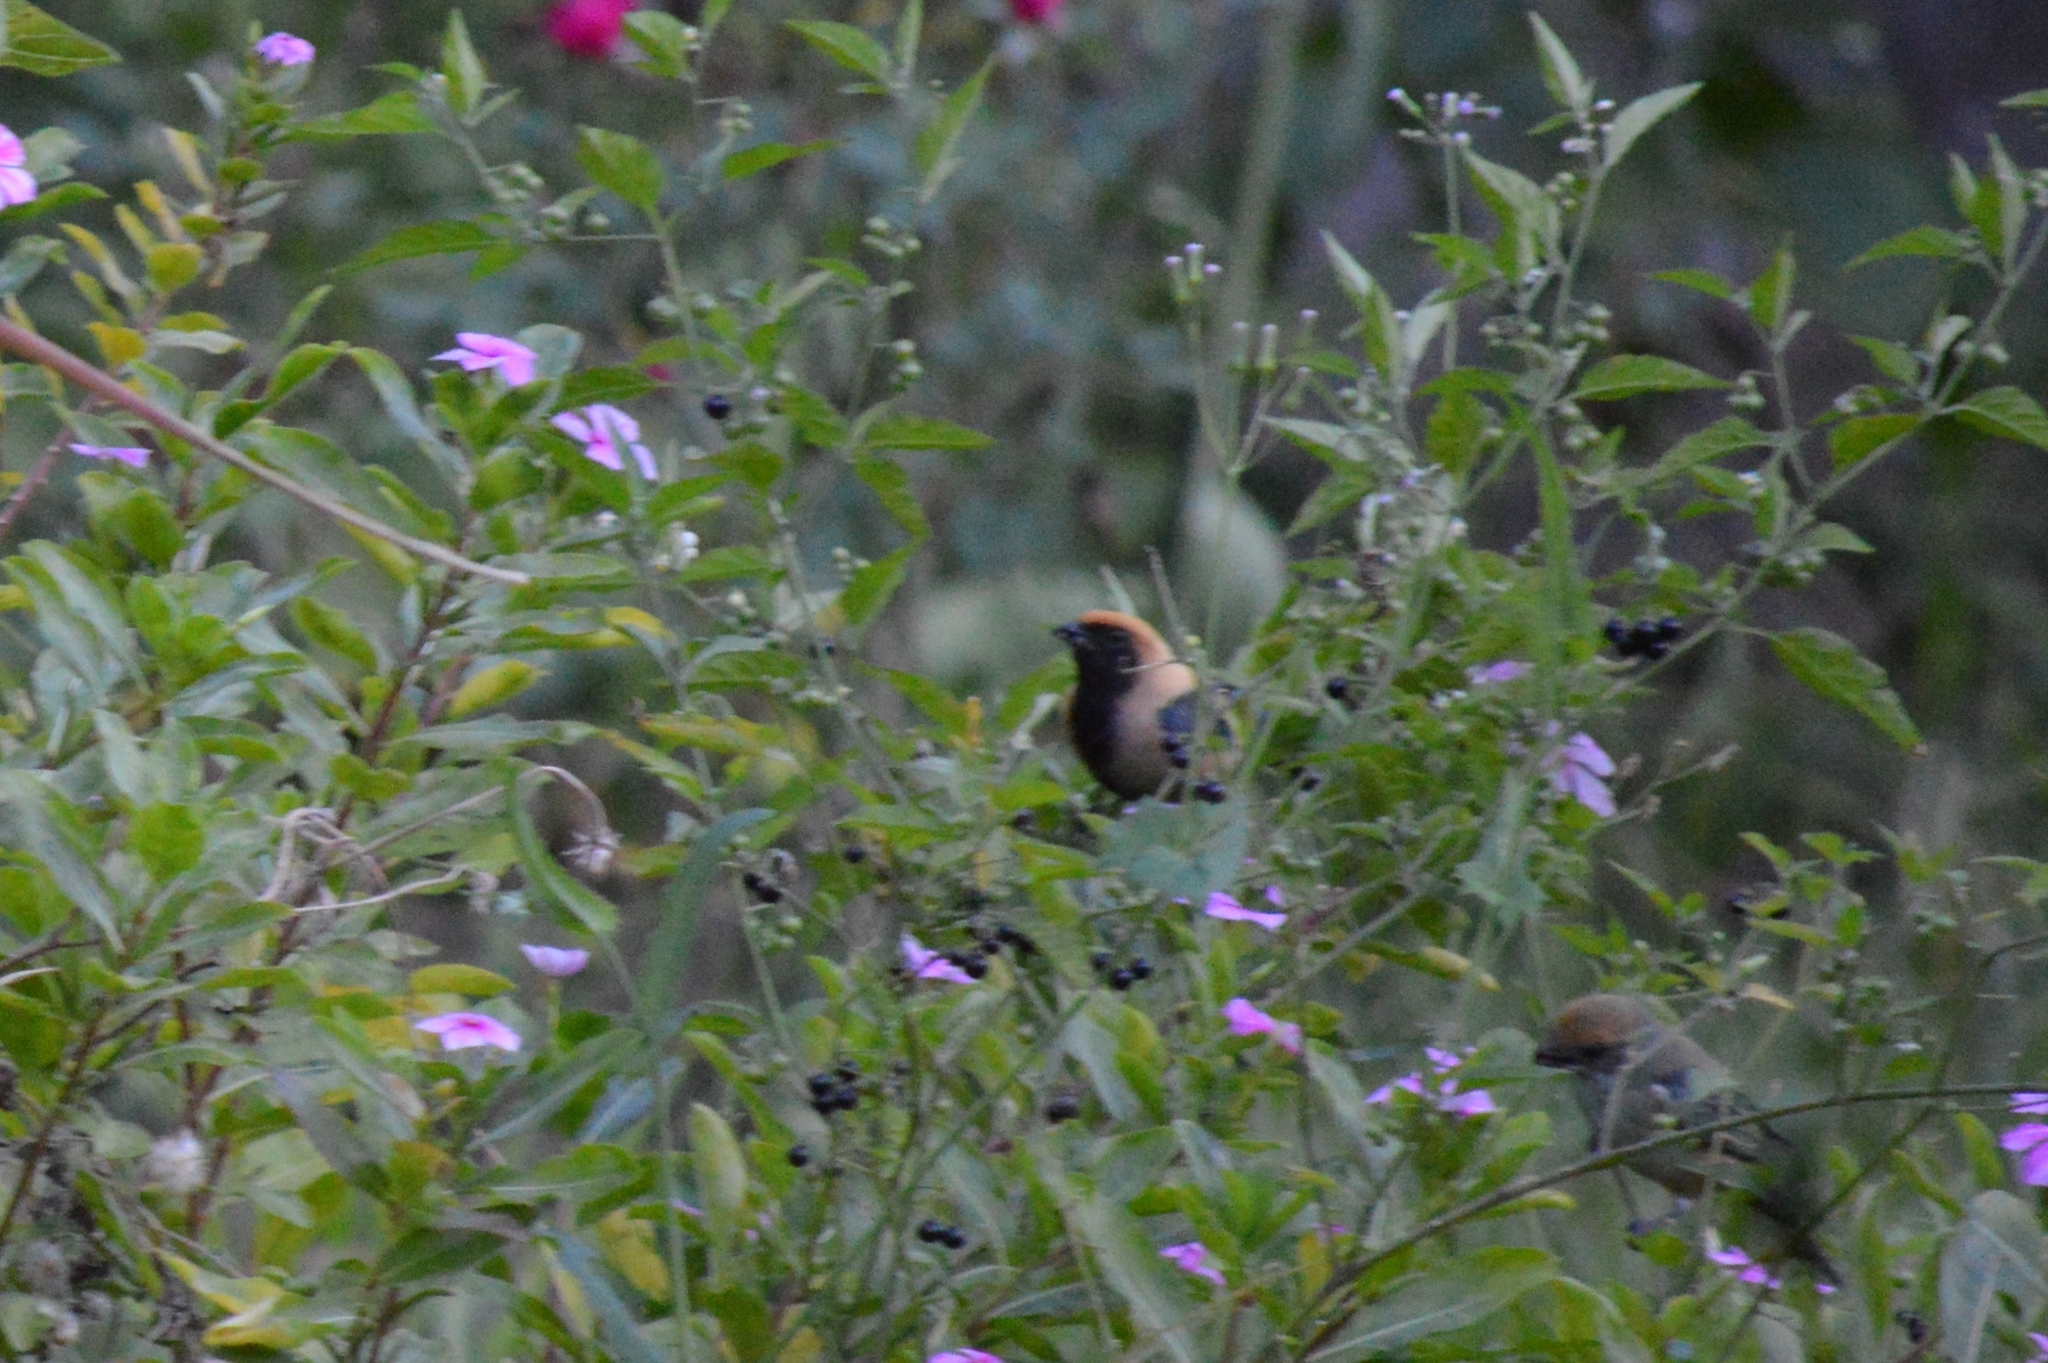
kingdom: Animalia
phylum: Chordata
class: Aves
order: Passeriformes
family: Thraupidae
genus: Stilpnia
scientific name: Stilpnia cayana
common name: Burnished-buff tanager
